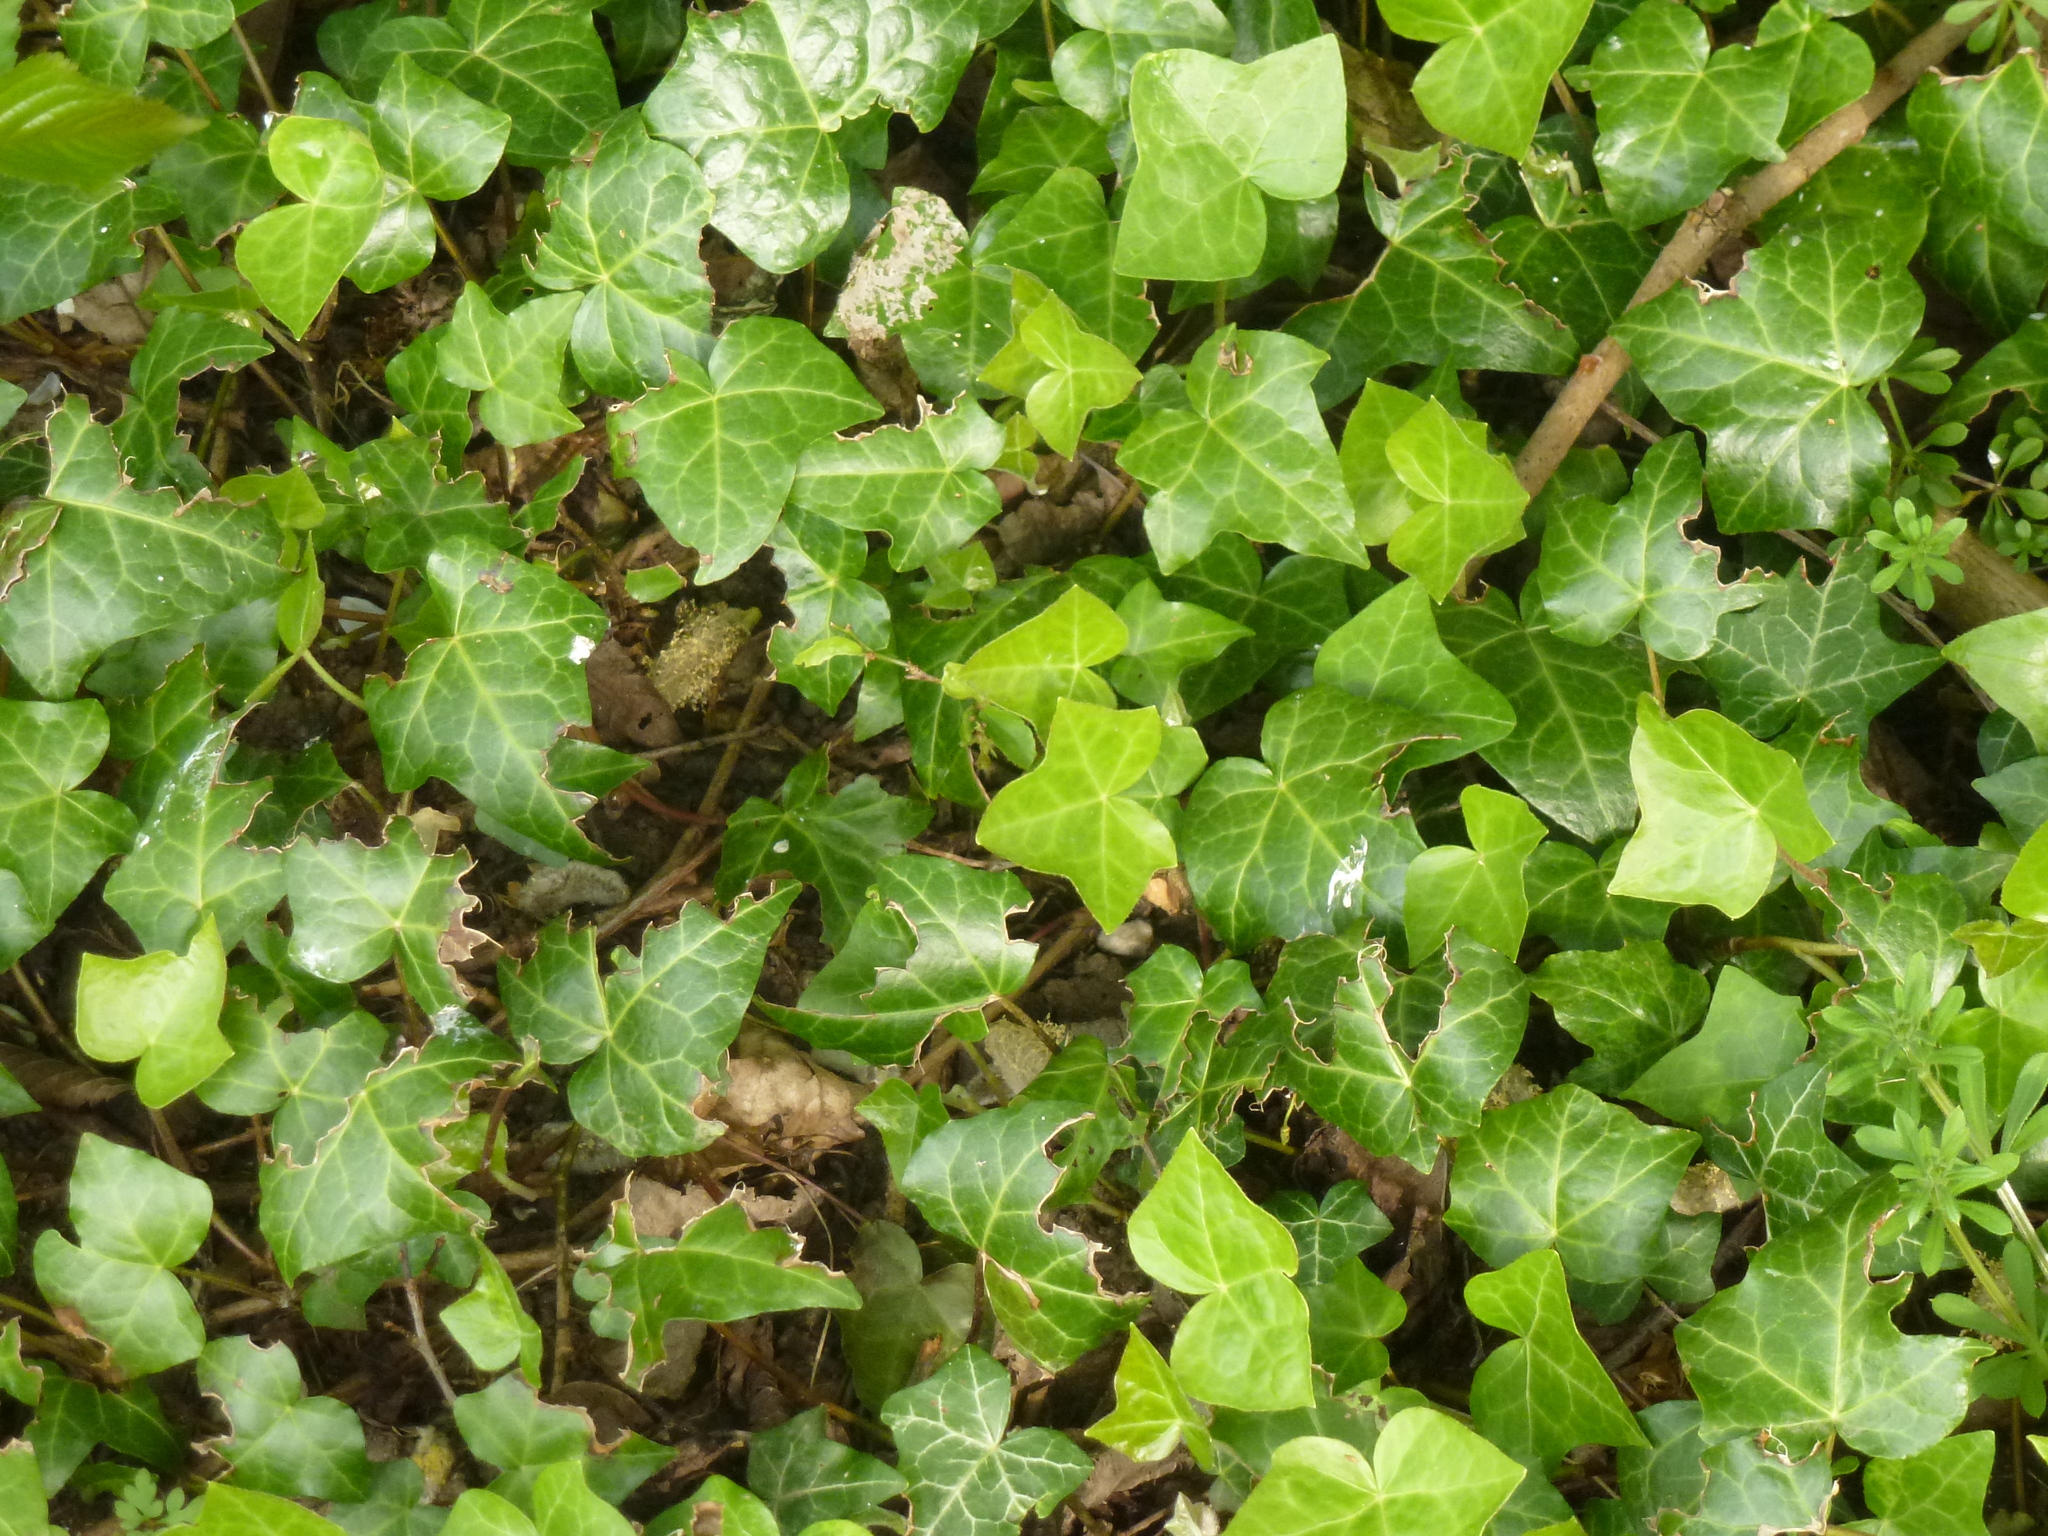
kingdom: Plantae
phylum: Tracheophyta
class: Magnoliopsida
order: Apiales
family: Araliaceae
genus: Hedera
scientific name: Hedera helix
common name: Ivy
